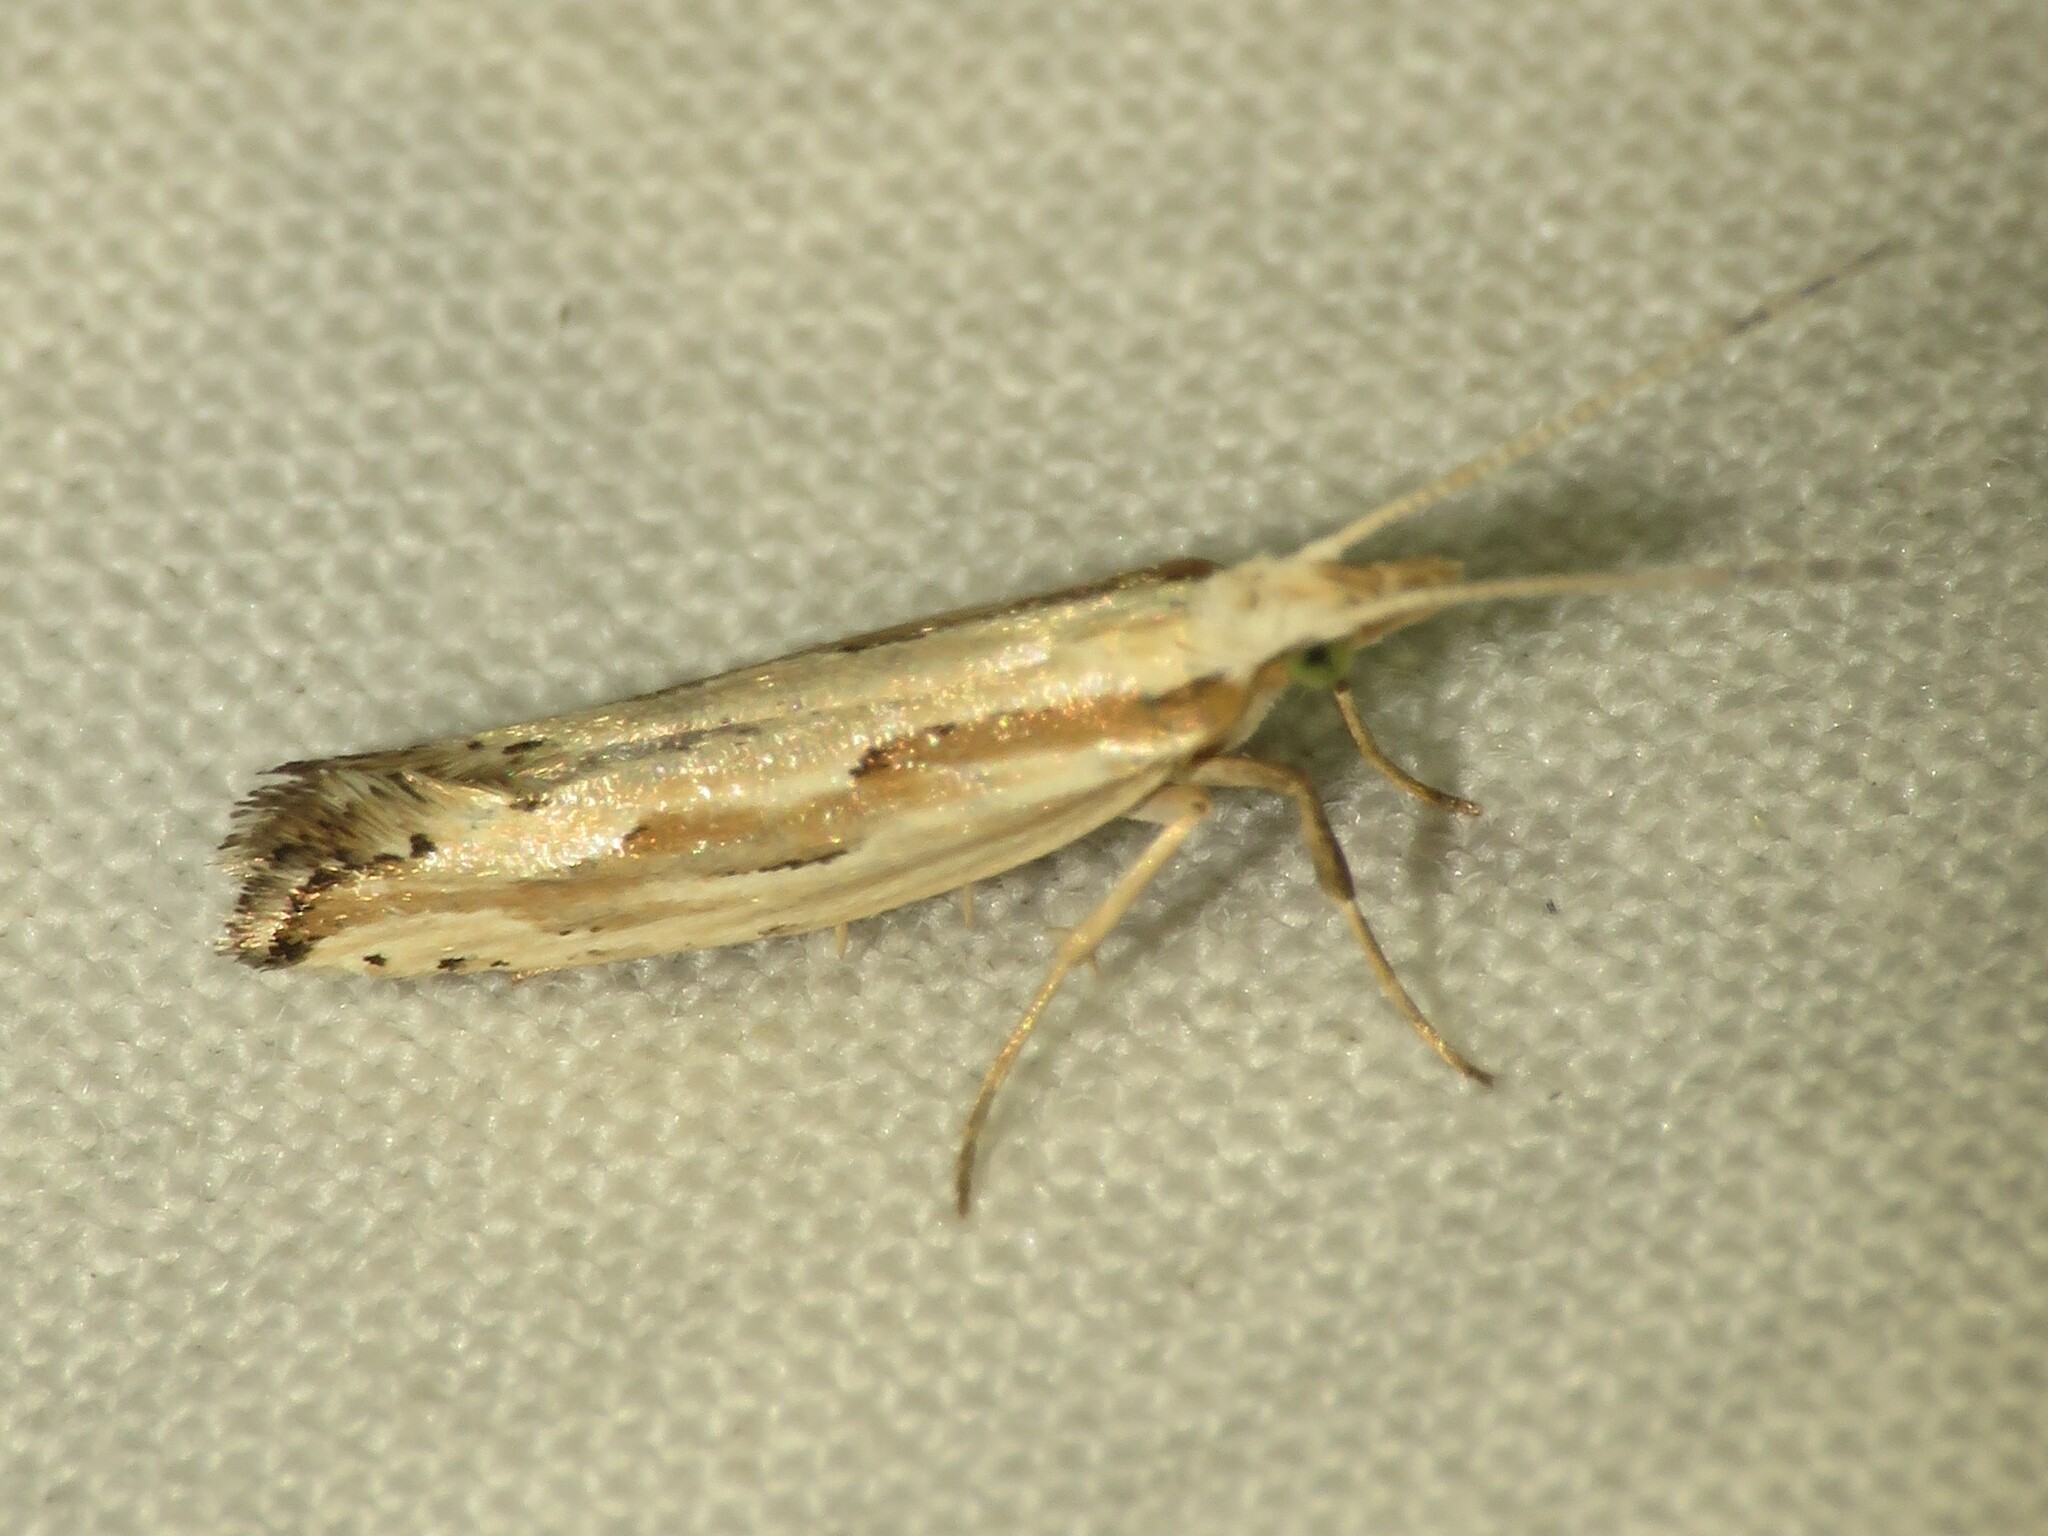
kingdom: Animalia
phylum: Arthropoda
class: Insecta
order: Lepidoptera
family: Plutellidae
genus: Plutella
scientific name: Plutella porrectella
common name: Dame's rocket moth
